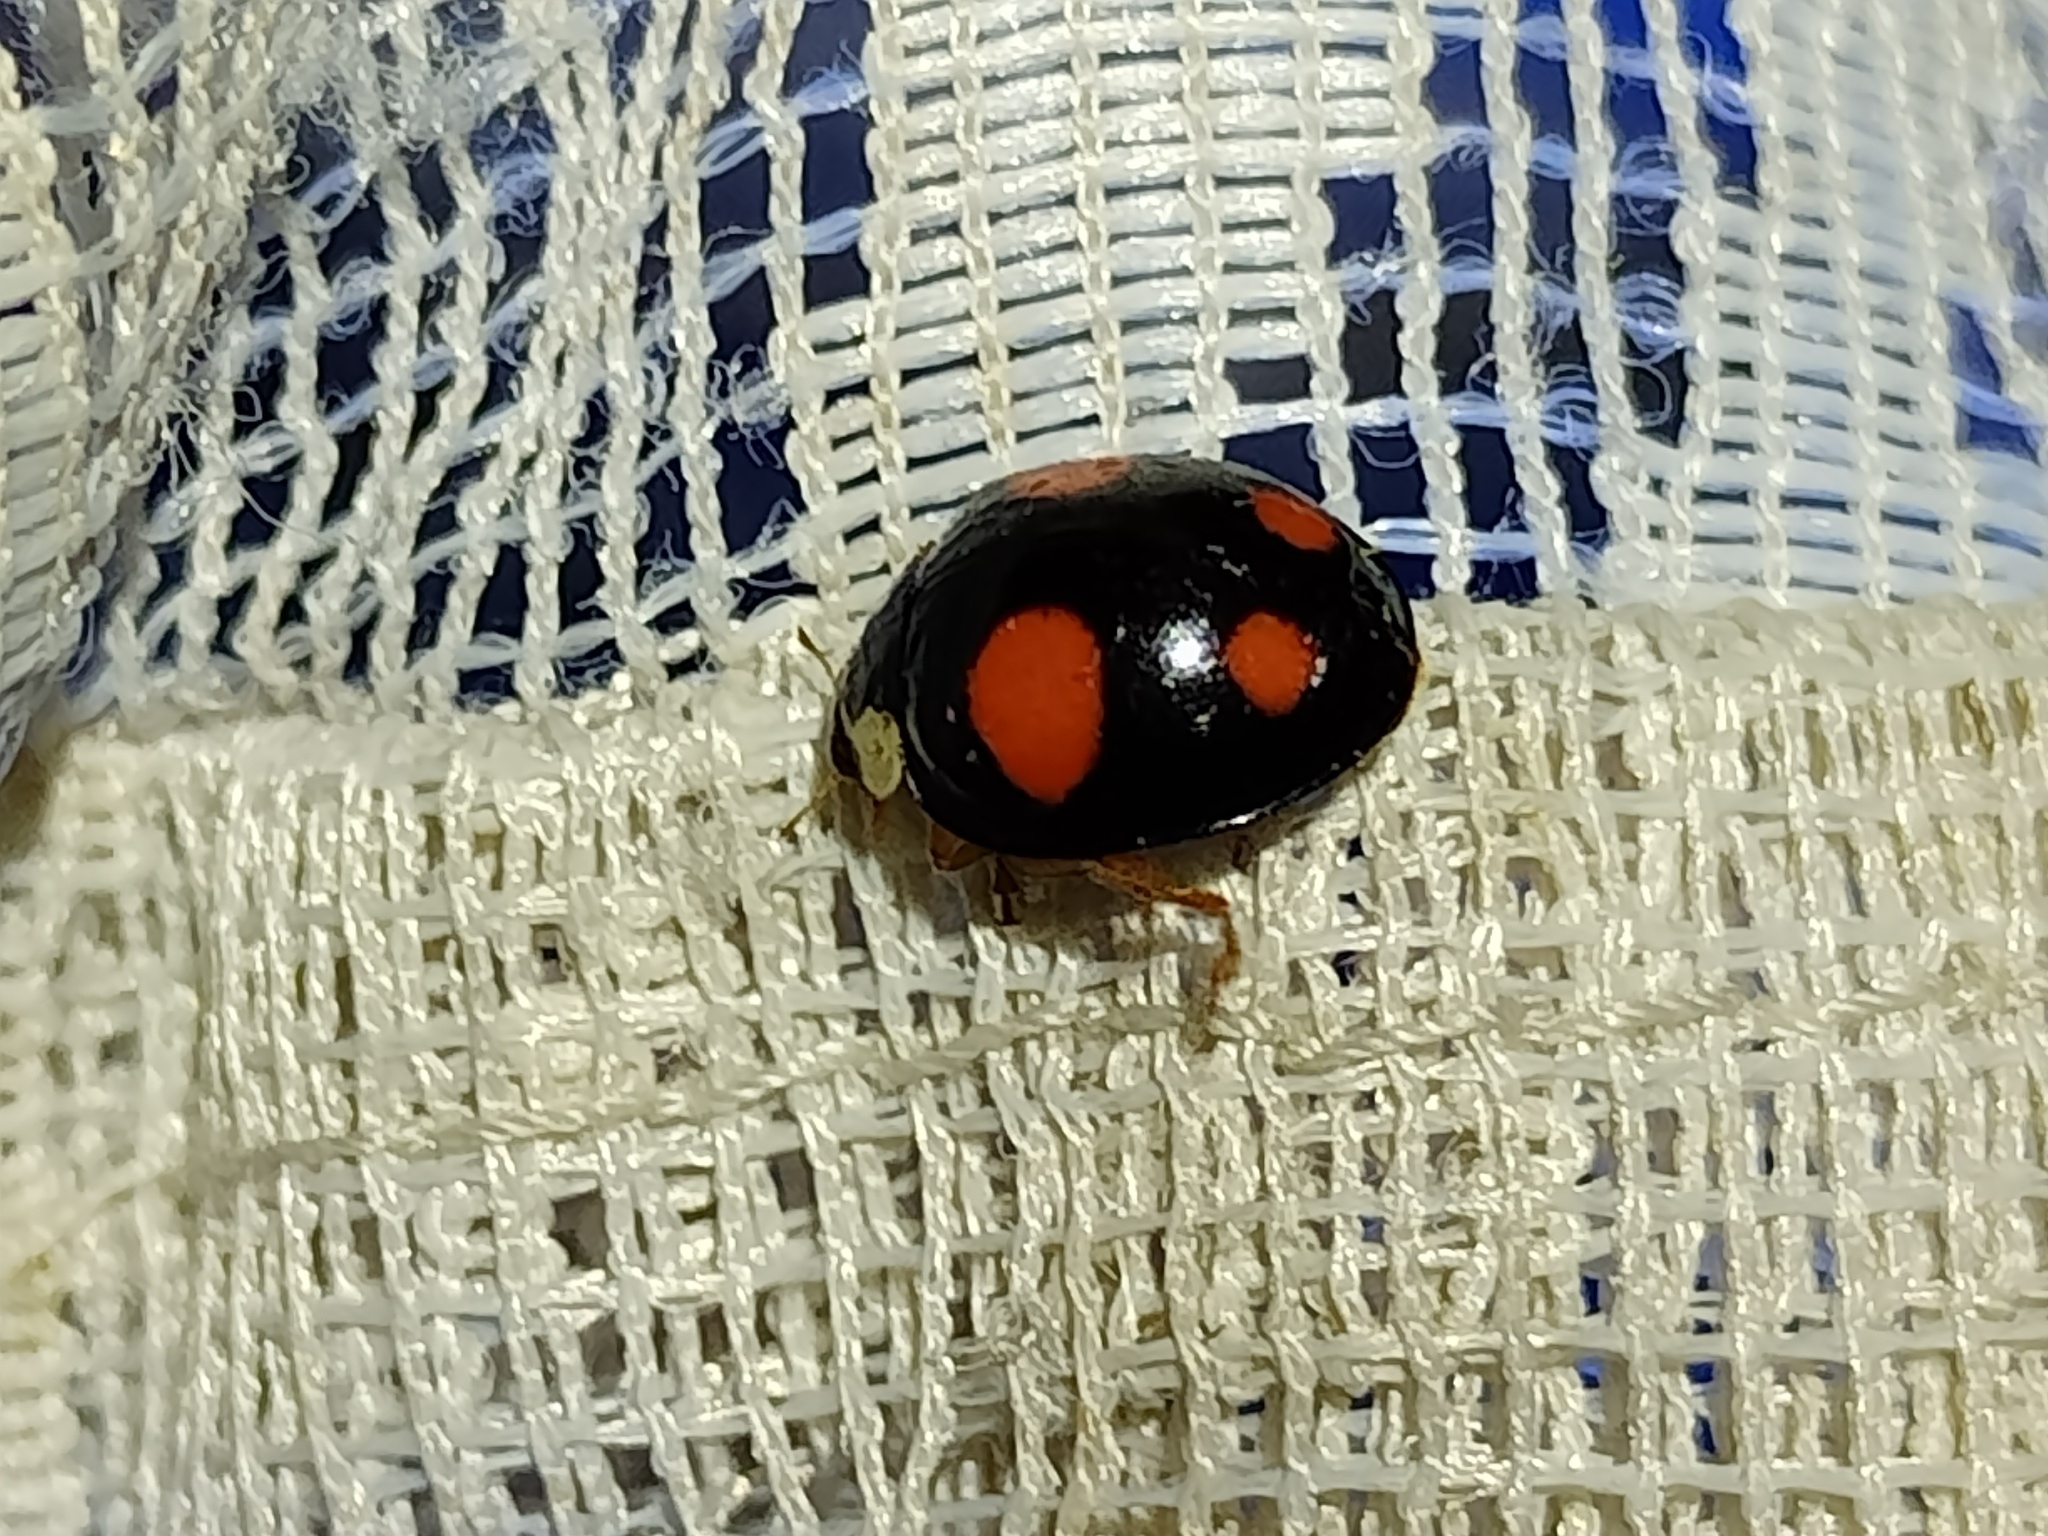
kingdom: Animalia
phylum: Arthropoda
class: Insecta
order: Coleoptera
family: Coccinellidae
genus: Harmonia
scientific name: Harmonia axyridis
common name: Harlequin ladybird
